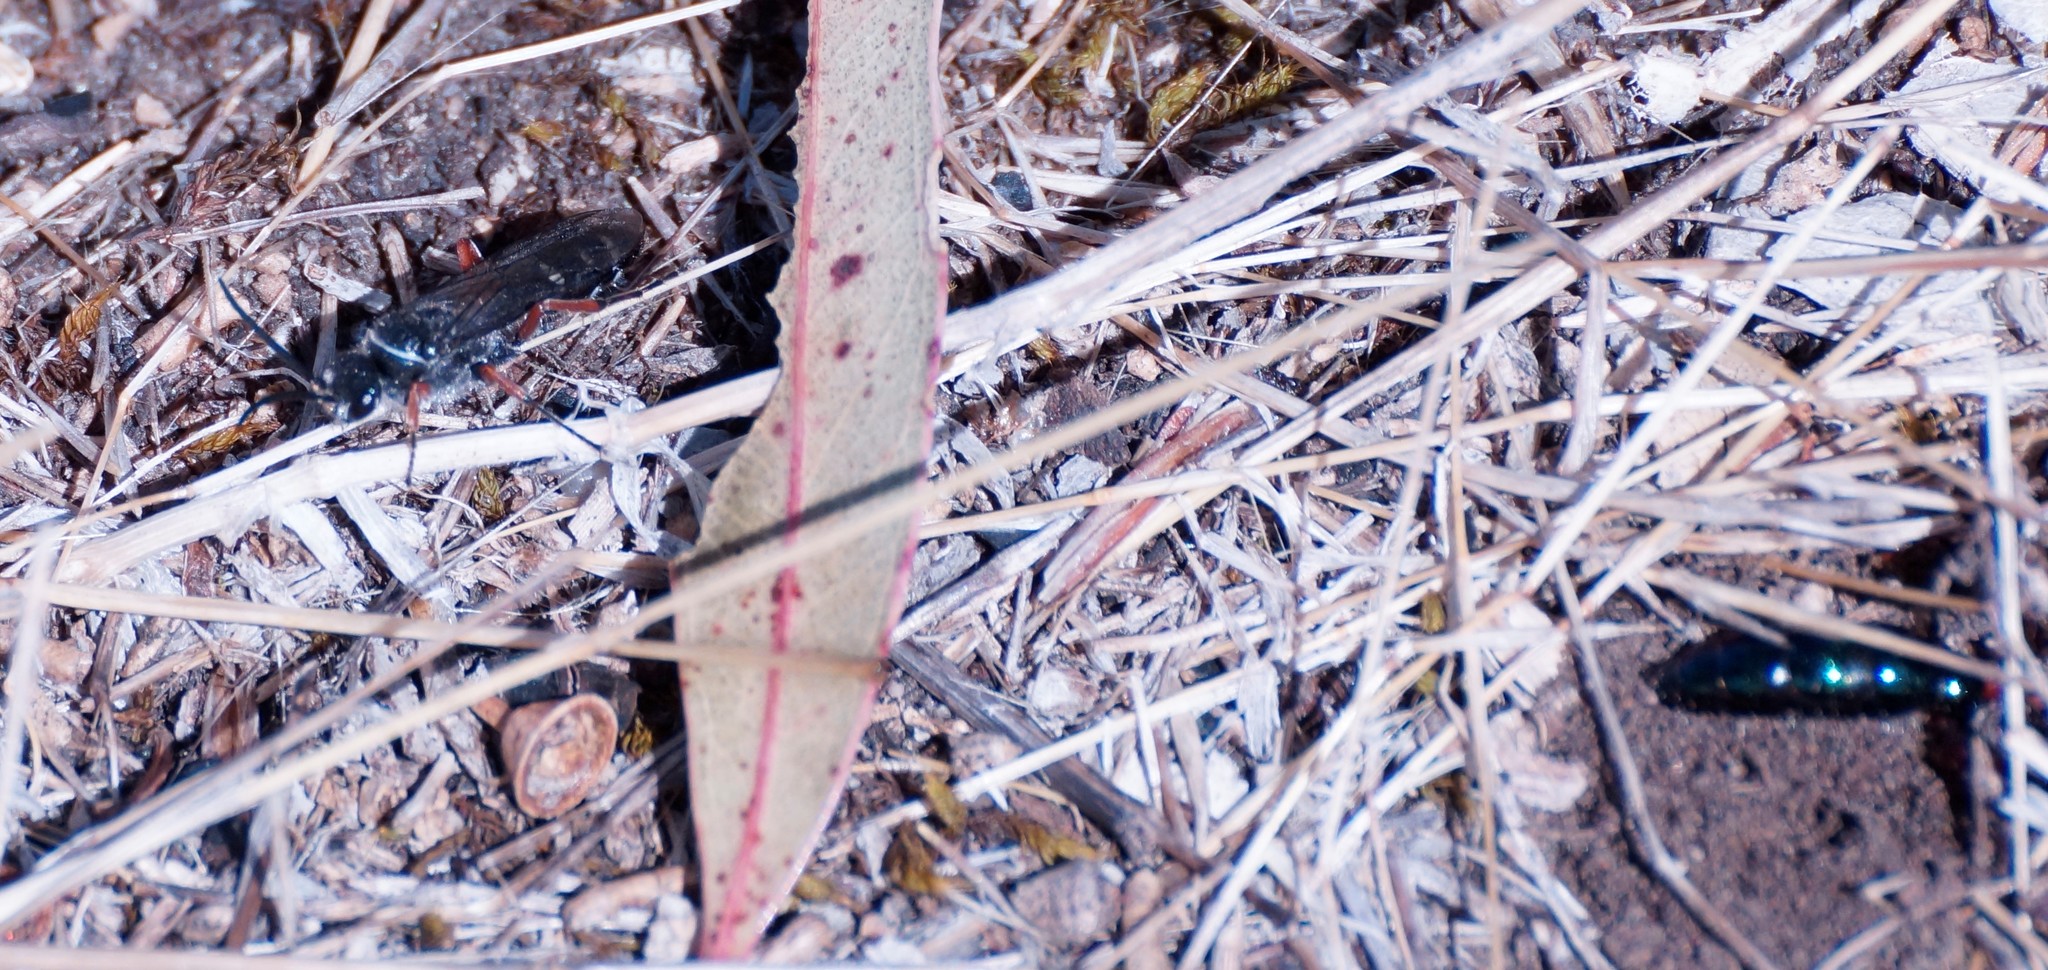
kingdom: Animalia
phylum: Arthropoda
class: Insecta
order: Hymenoptera
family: Tiphiidae
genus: Diamma
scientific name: Diamma
